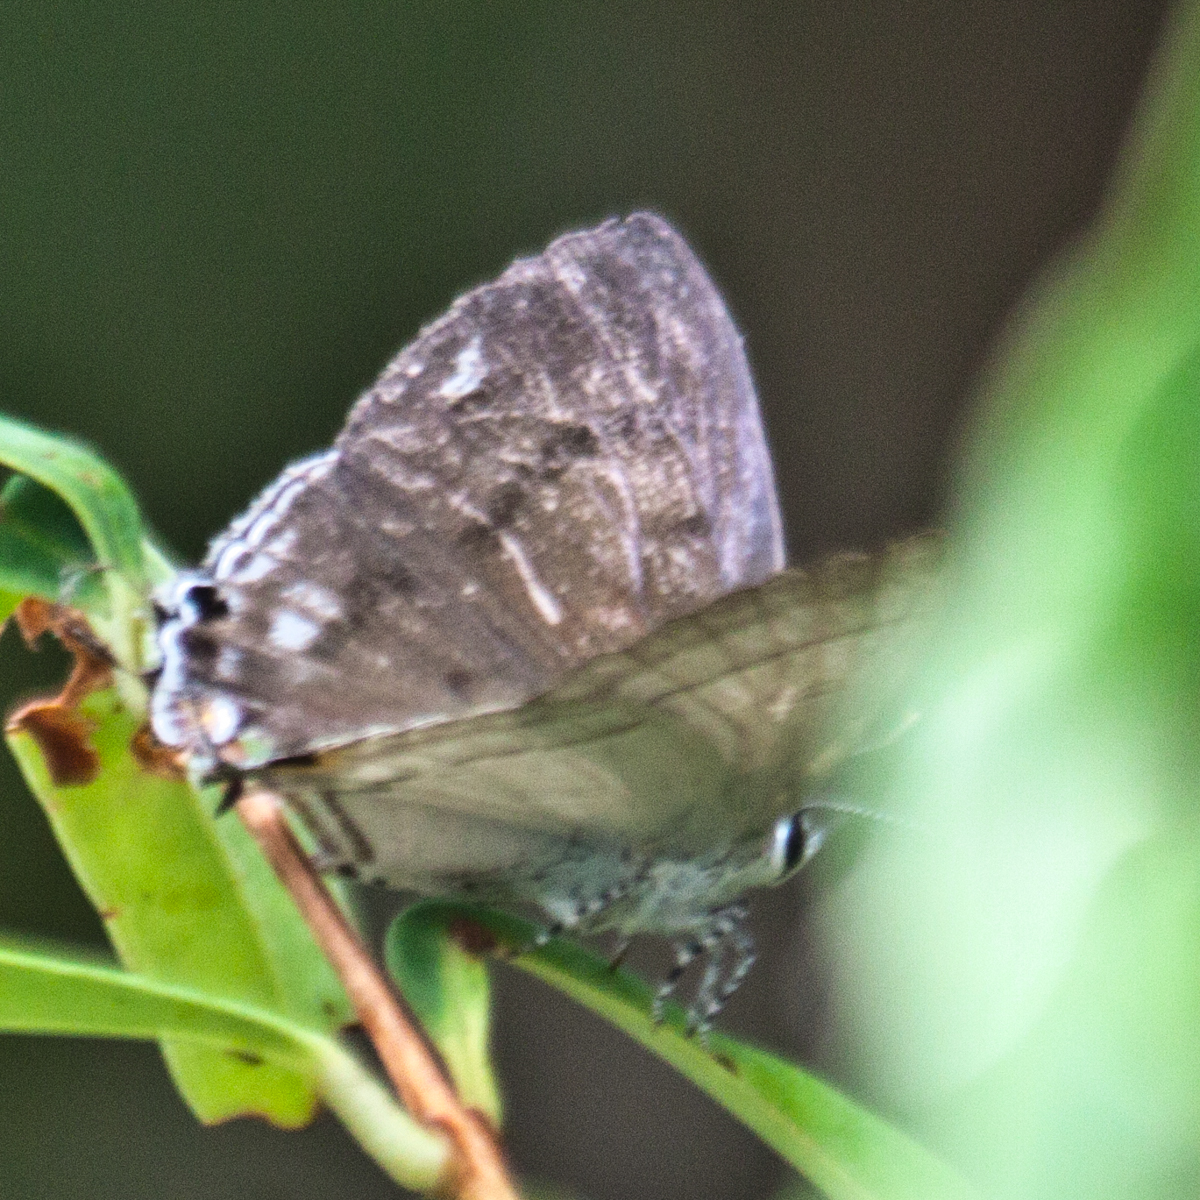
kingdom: Animalia
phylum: Arthropoda
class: Insecta
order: Lepidoptera
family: Lycaenidae
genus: Hypolycaena
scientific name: Hypolycaena erylus
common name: Common tit
